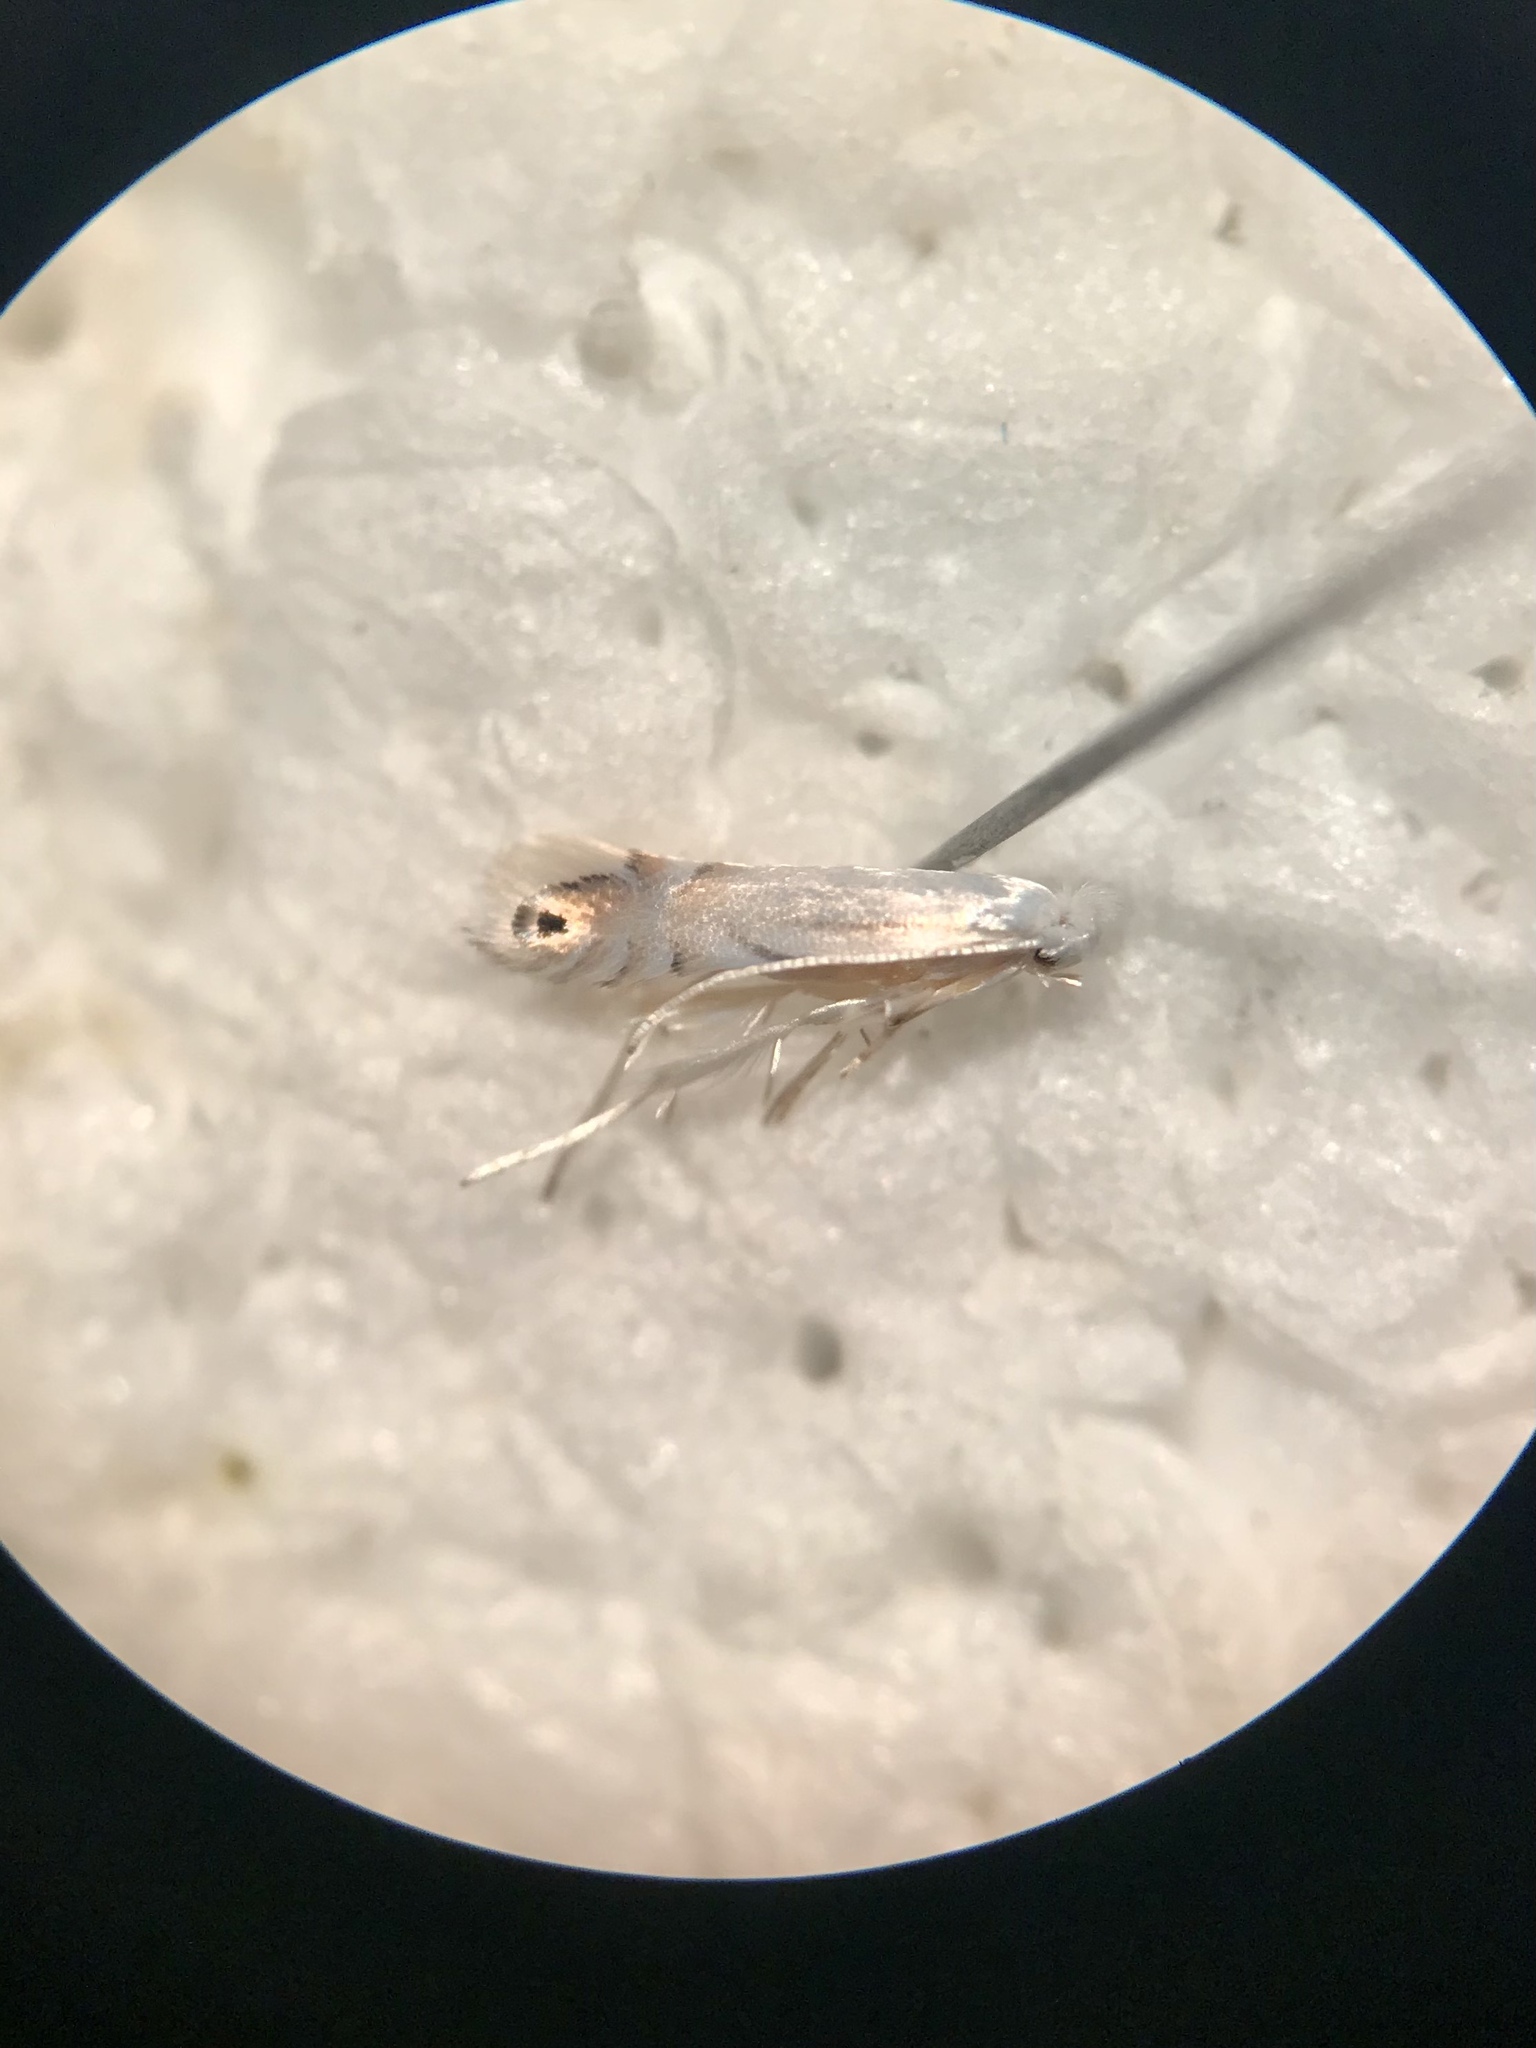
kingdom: Animalia
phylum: Arthropoda
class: Insecta
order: Lepidoptera
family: Gracillariidae
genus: Phyllonorycter
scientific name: Phyllonorycter argentifimbriella
